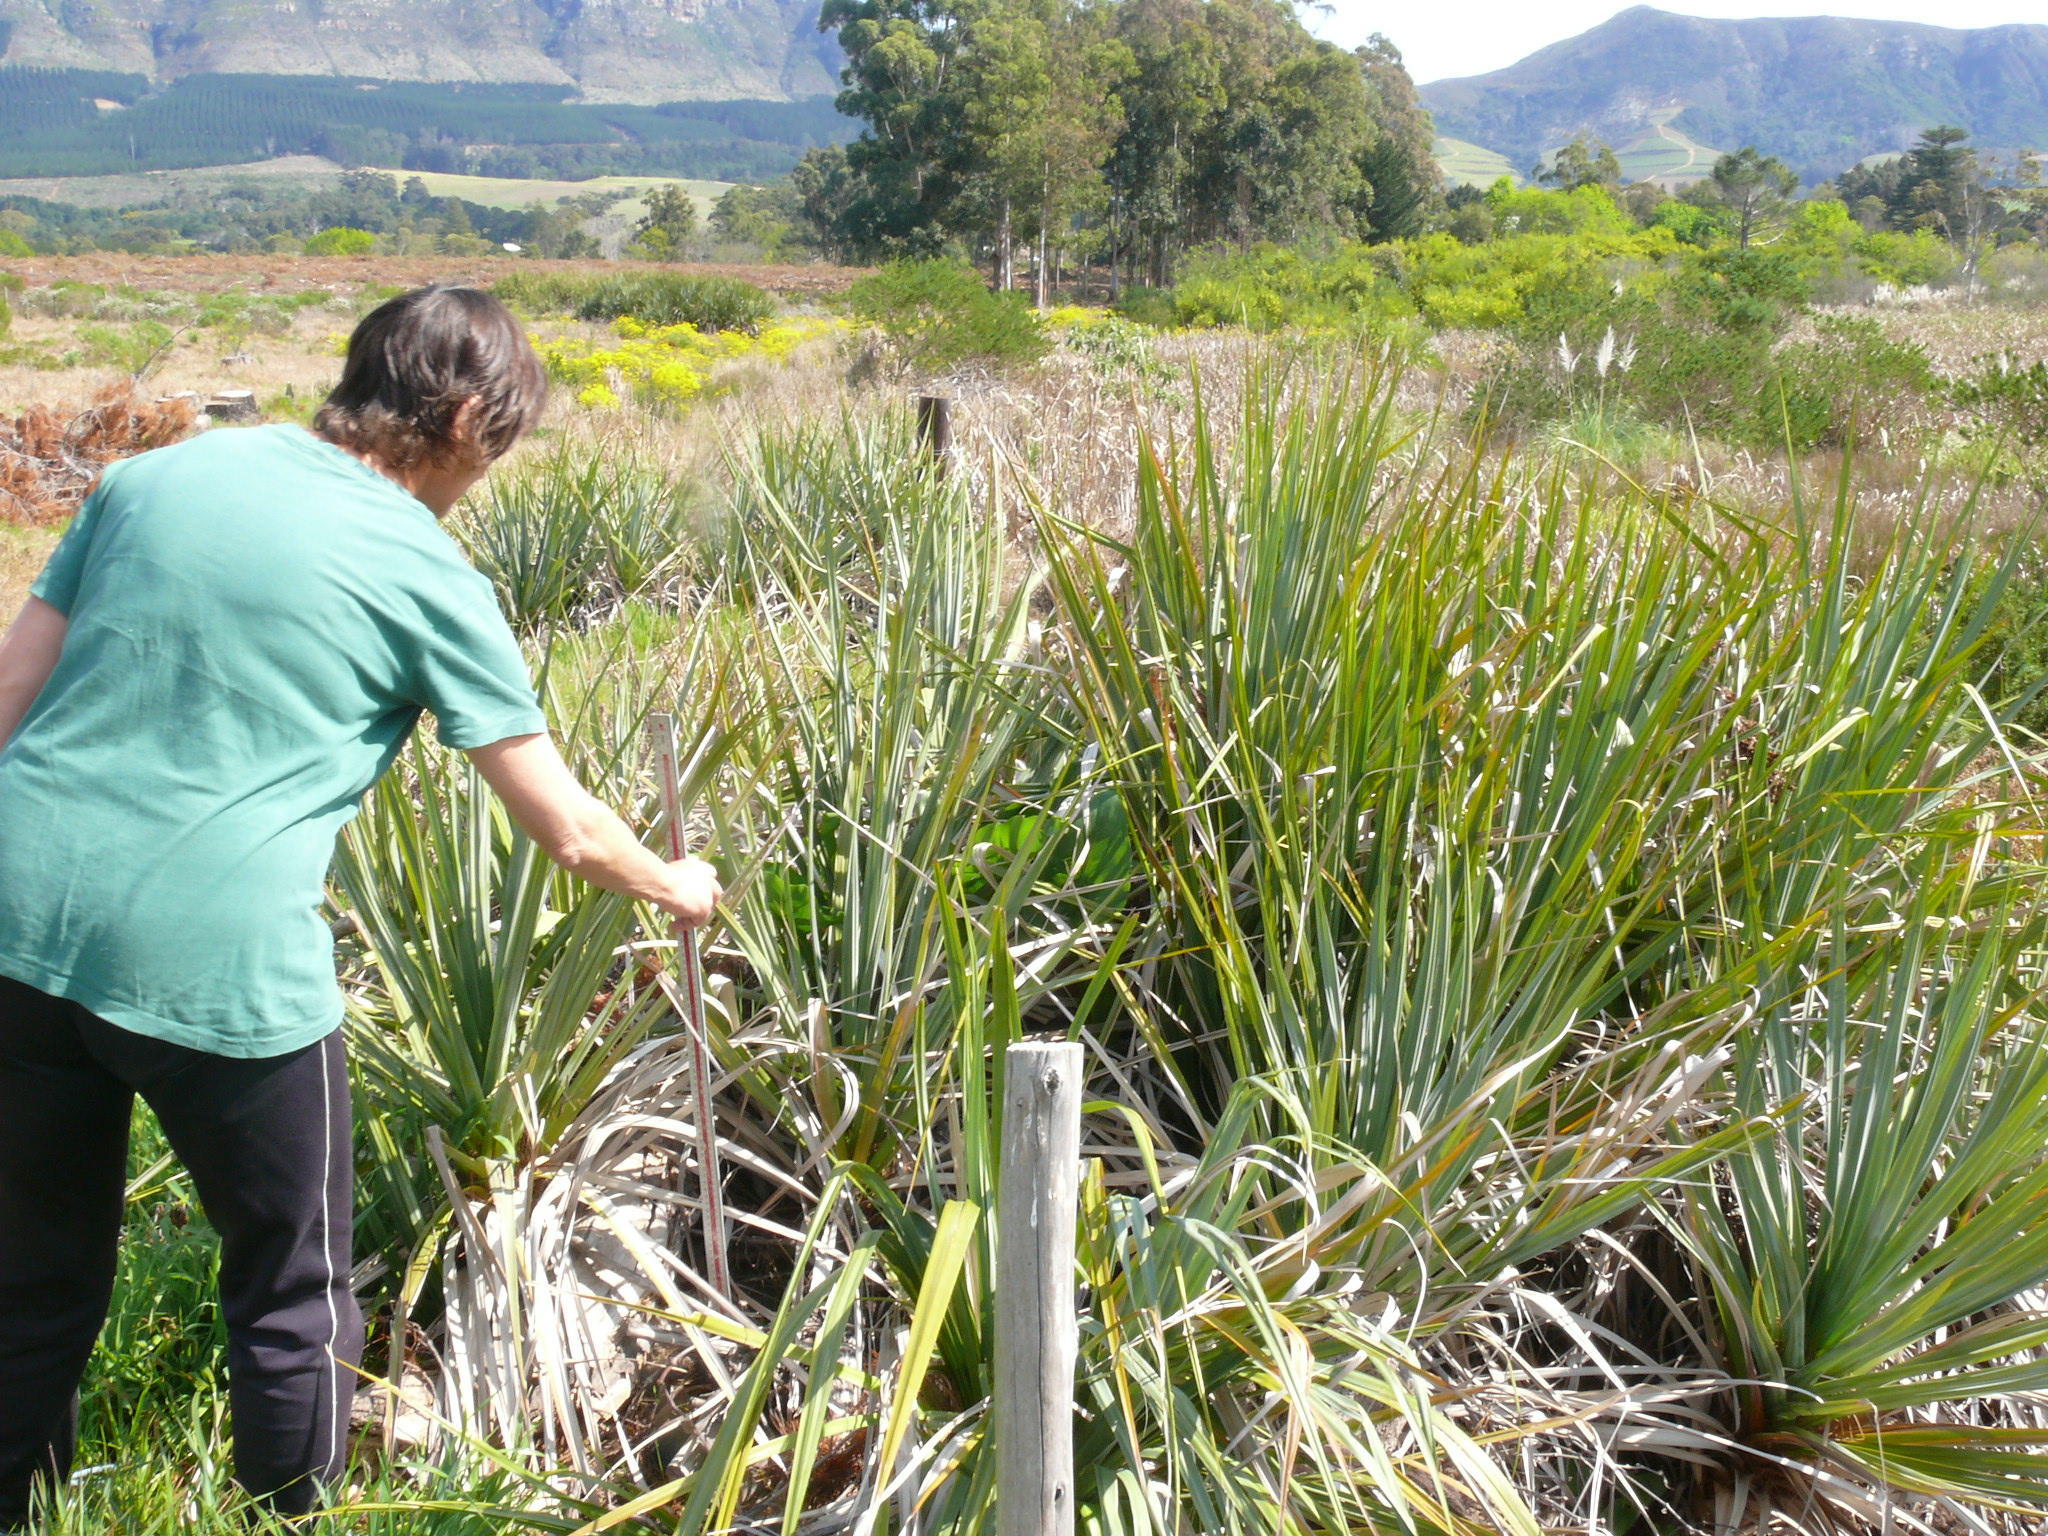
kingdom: Plantae
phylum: Tracheophyta
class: Liliopsida
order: Poales
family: Thurniaceae
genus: Prionium
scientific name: Prionium serratum
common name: Palmiet
